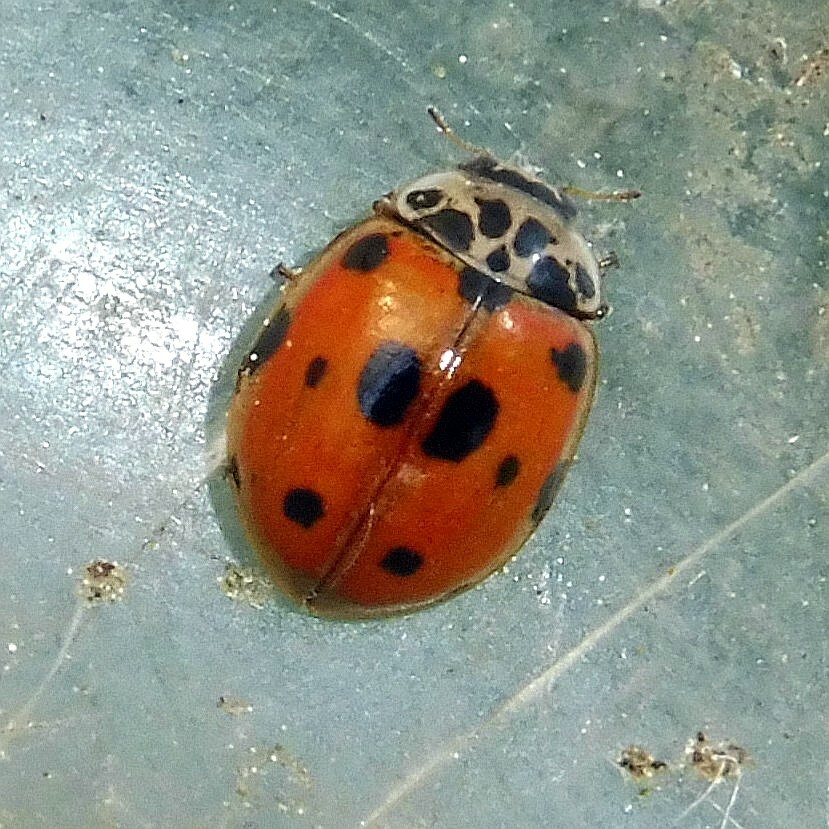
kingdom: Animalia
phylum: Arthropoda
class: Insecta
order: Coleoptera
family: Coccinellidae
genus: Adalia
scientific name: Adalia decempunctata
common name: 10-spot ladybird
